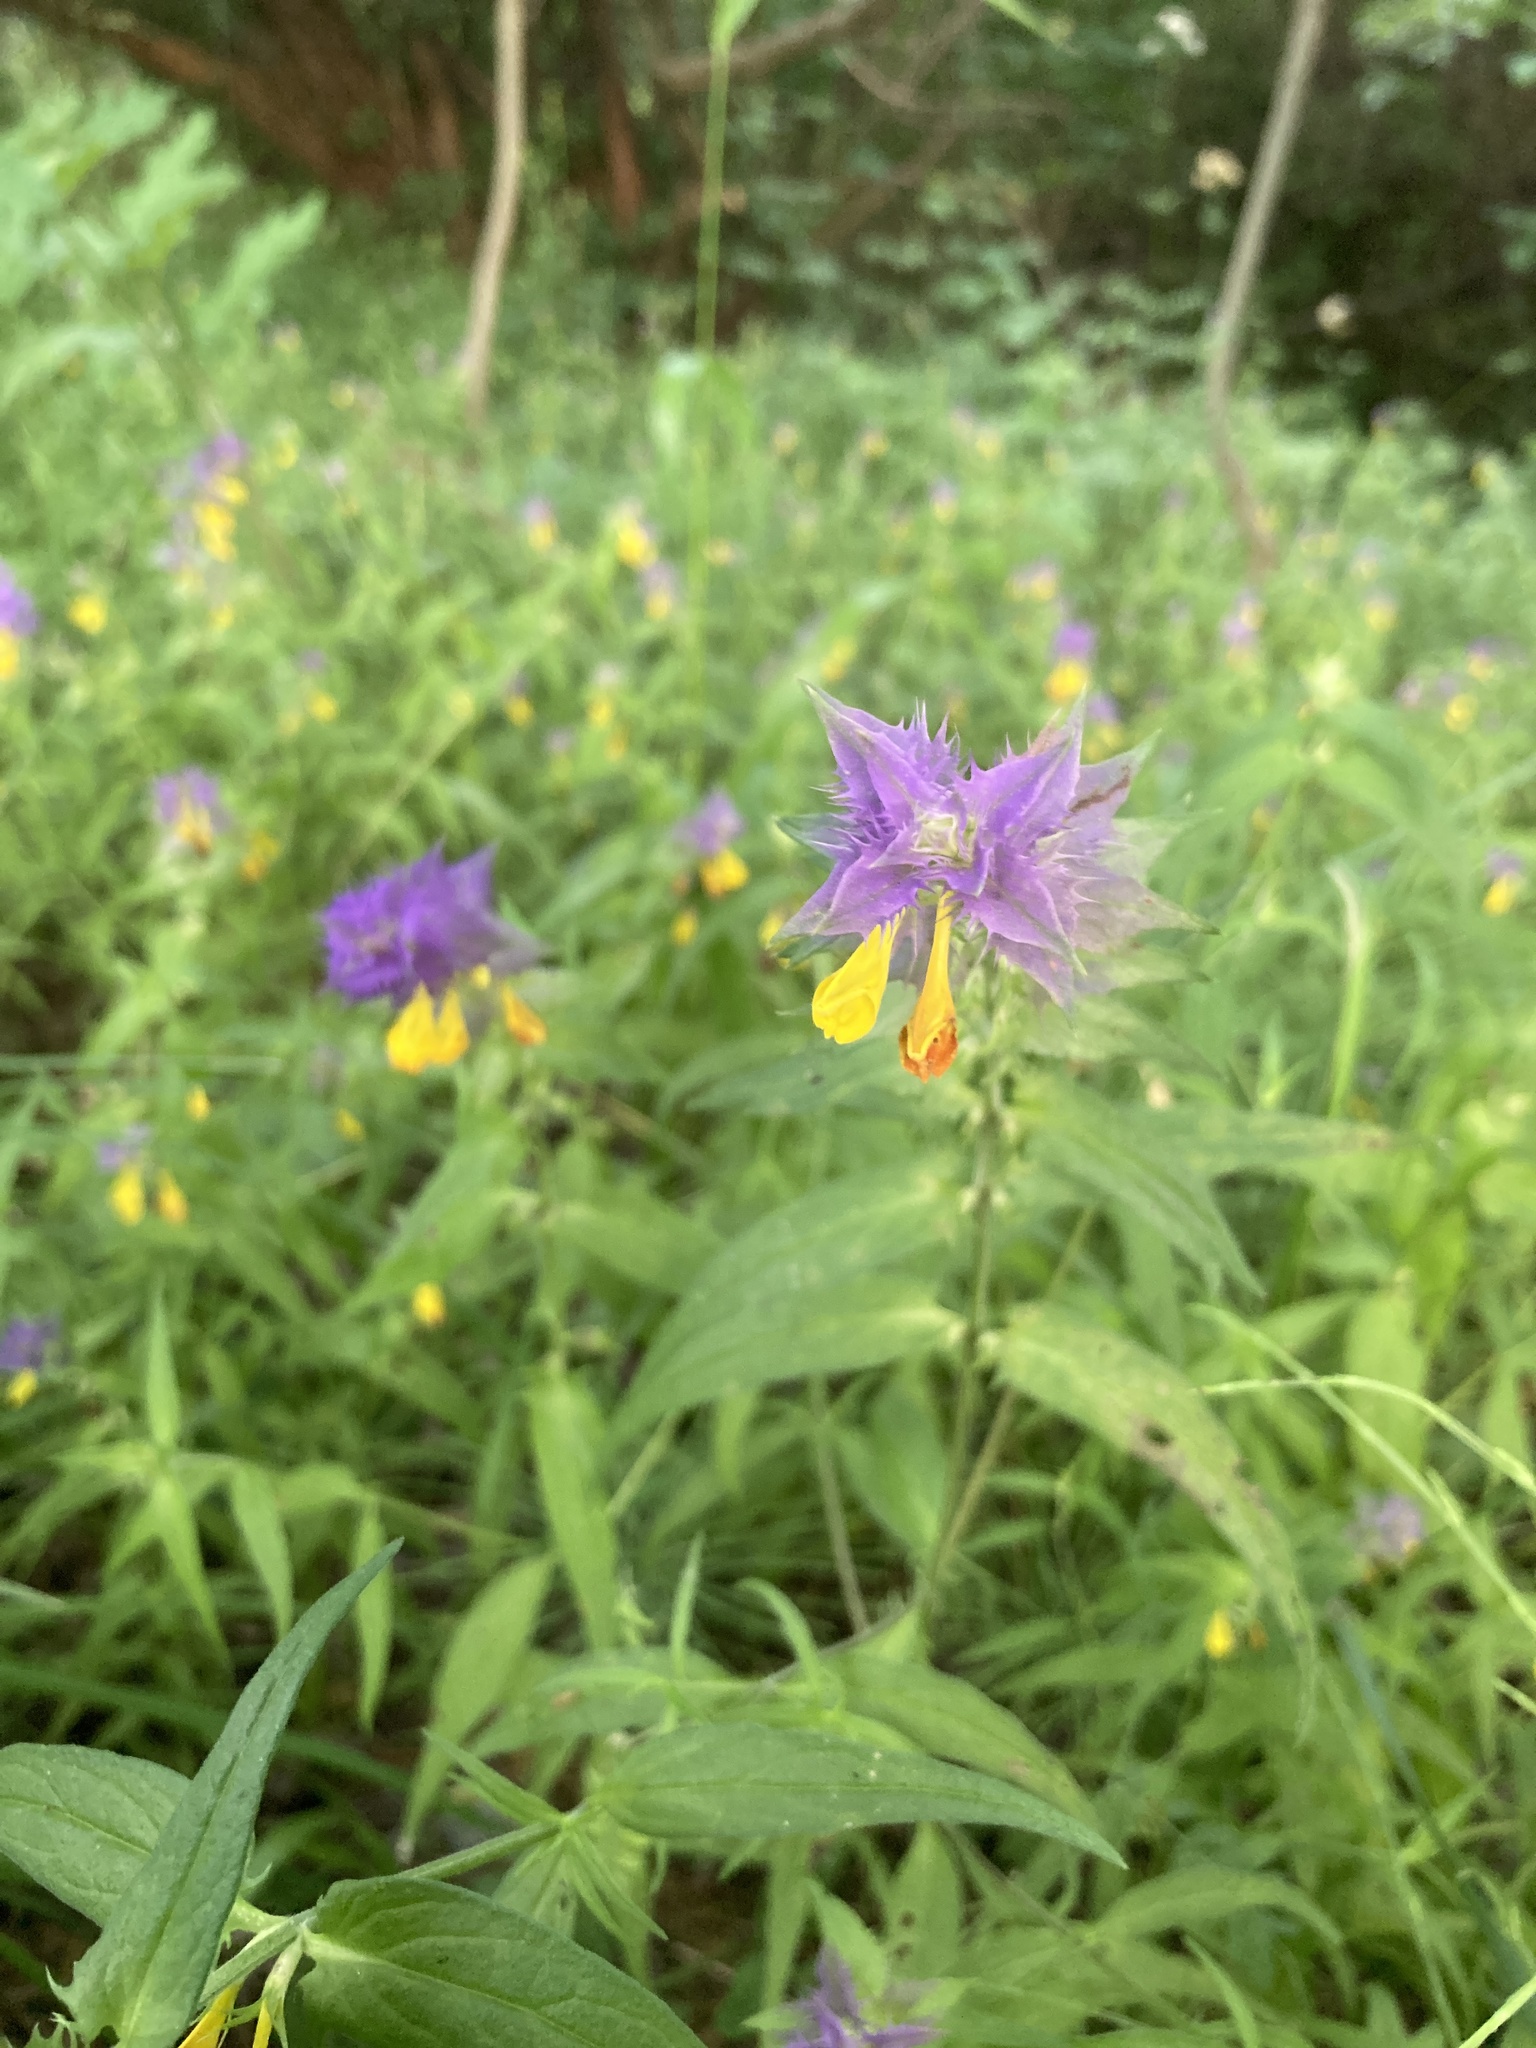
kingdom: Plantae
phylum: Tracheophyta
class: Magnoliopsida
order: Lamiales
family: Orobanchaceae
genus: Melampyrum
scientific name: Melampyrum nemorosum
